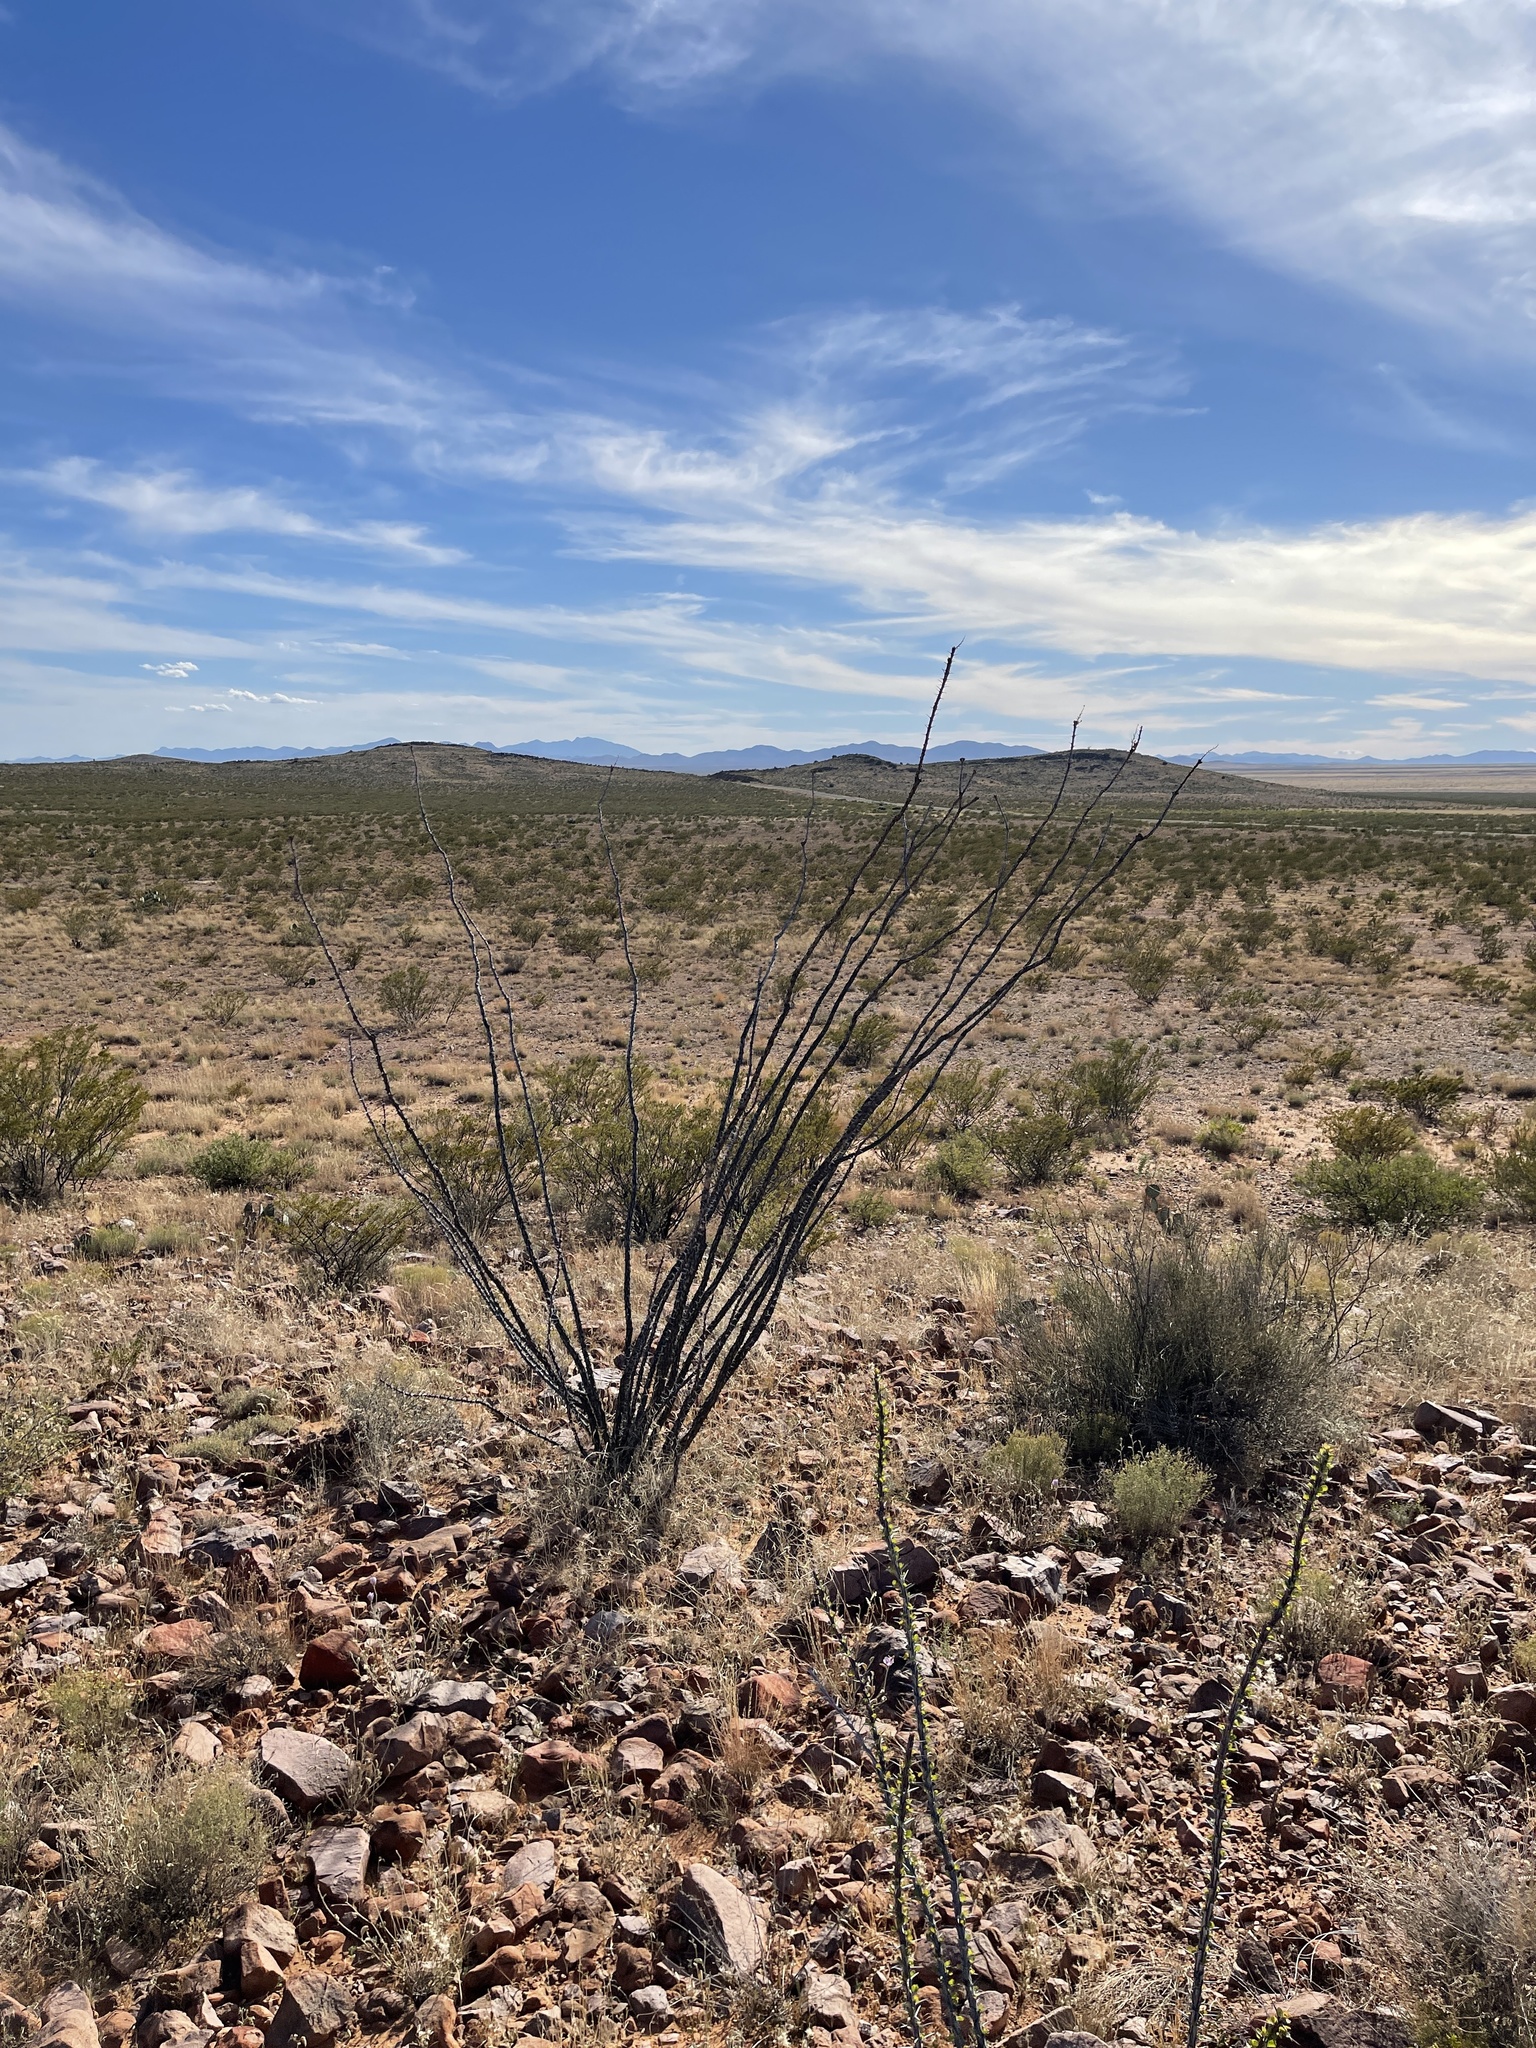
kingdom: Plantae
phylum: Tracheophyta
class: Magnoliopsida
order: Ericales
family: Fouquieriaceae
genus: Fouquieria
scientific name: Fouquieria splendens
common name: Vine-cactus
